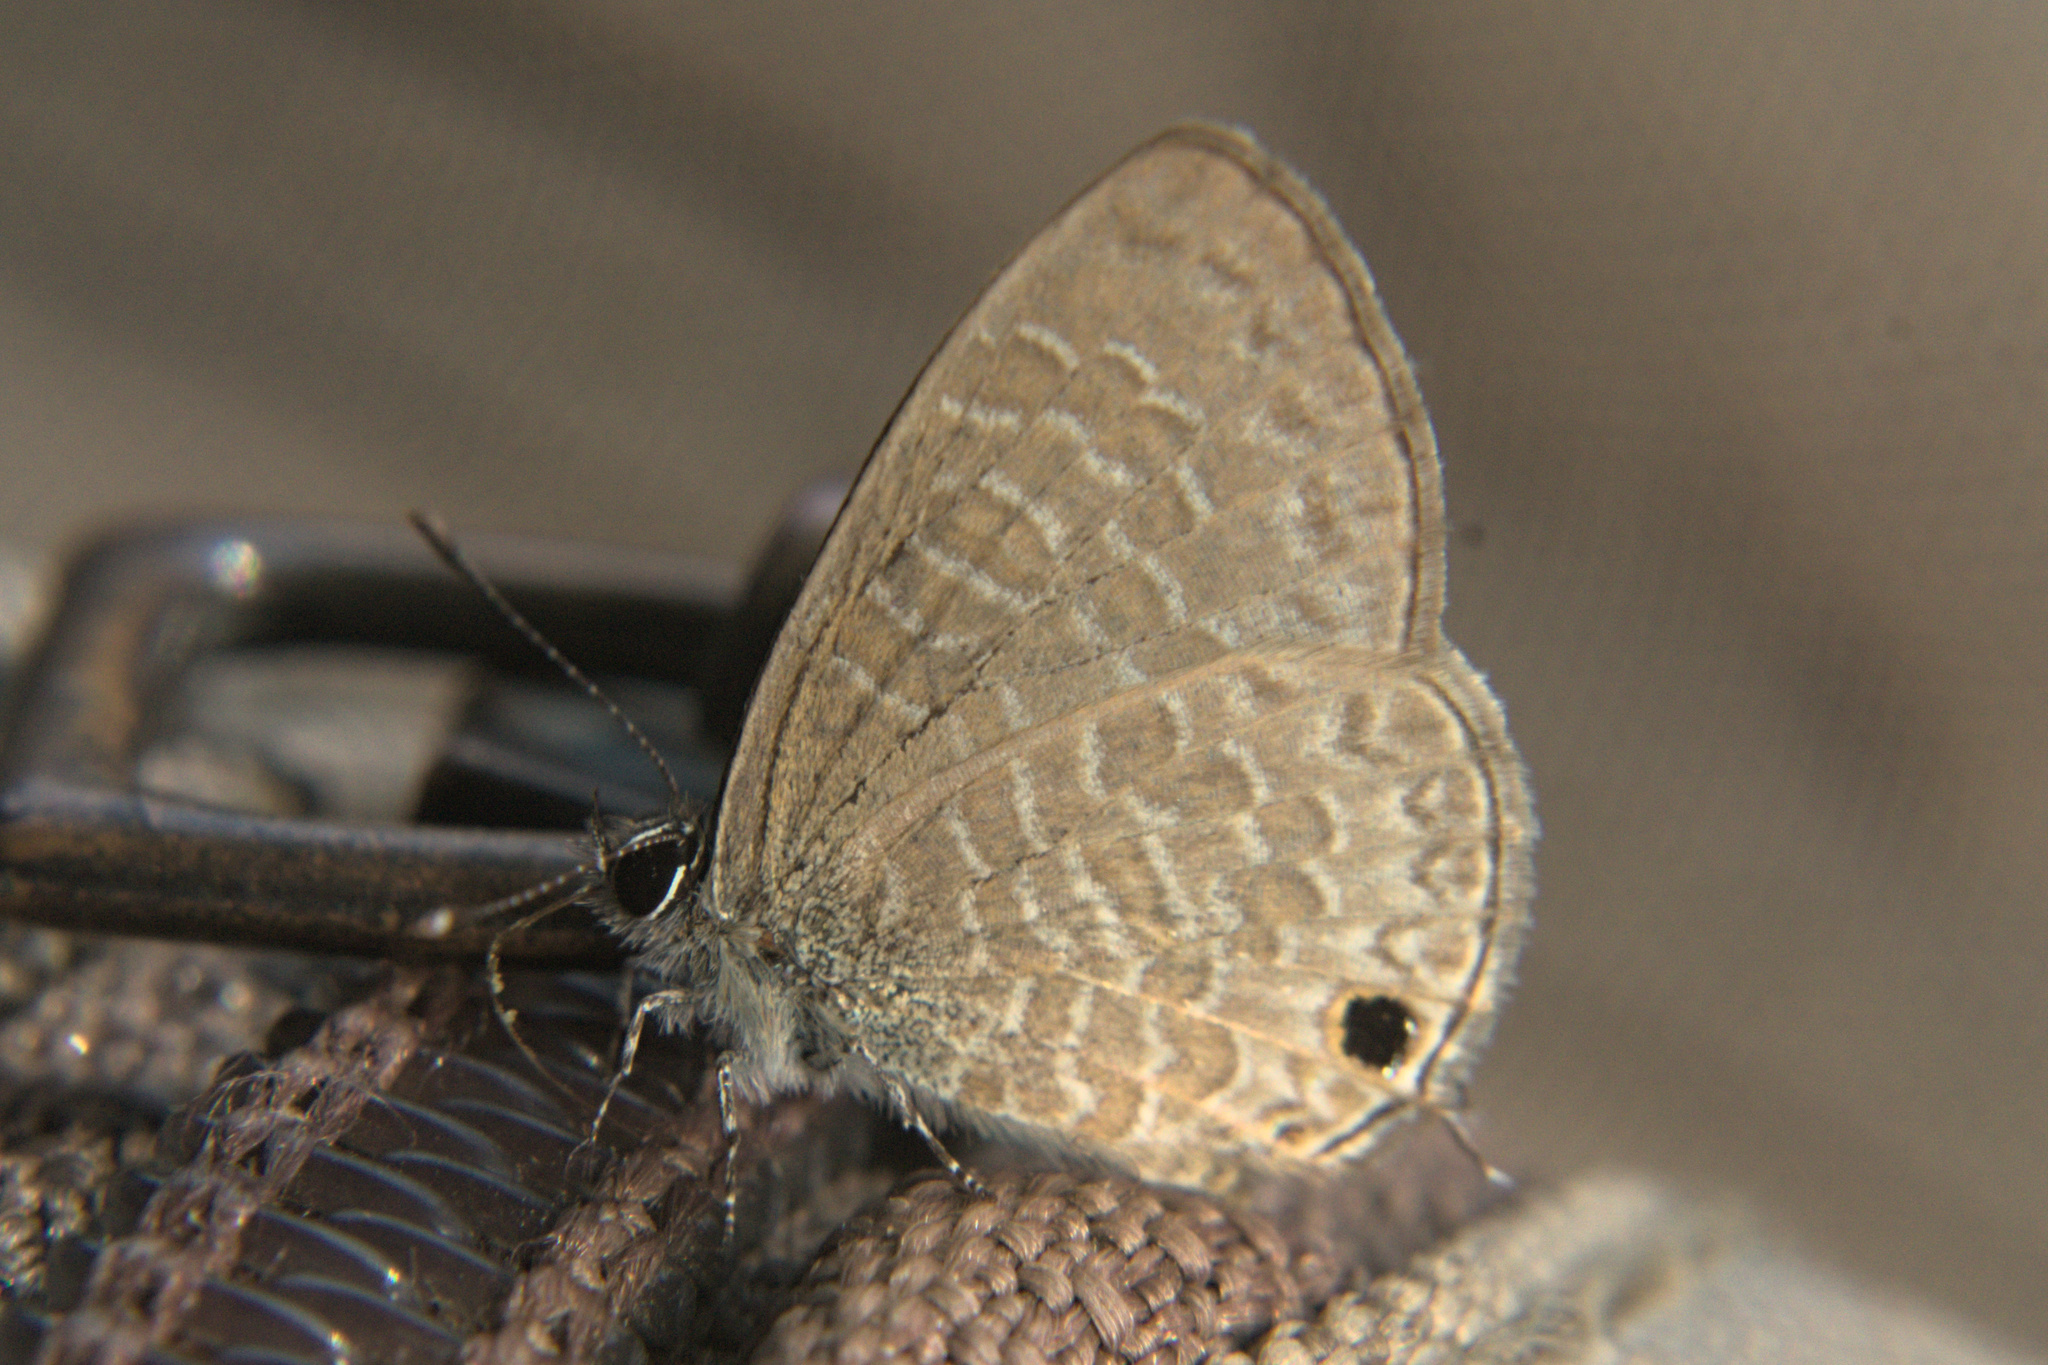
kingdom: Animalia
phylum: Arthropoda
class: Insecta
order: Lepidoptera
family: Lycaenidae
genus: Prosotas
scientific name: Prosotas nora
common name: Common line blue
